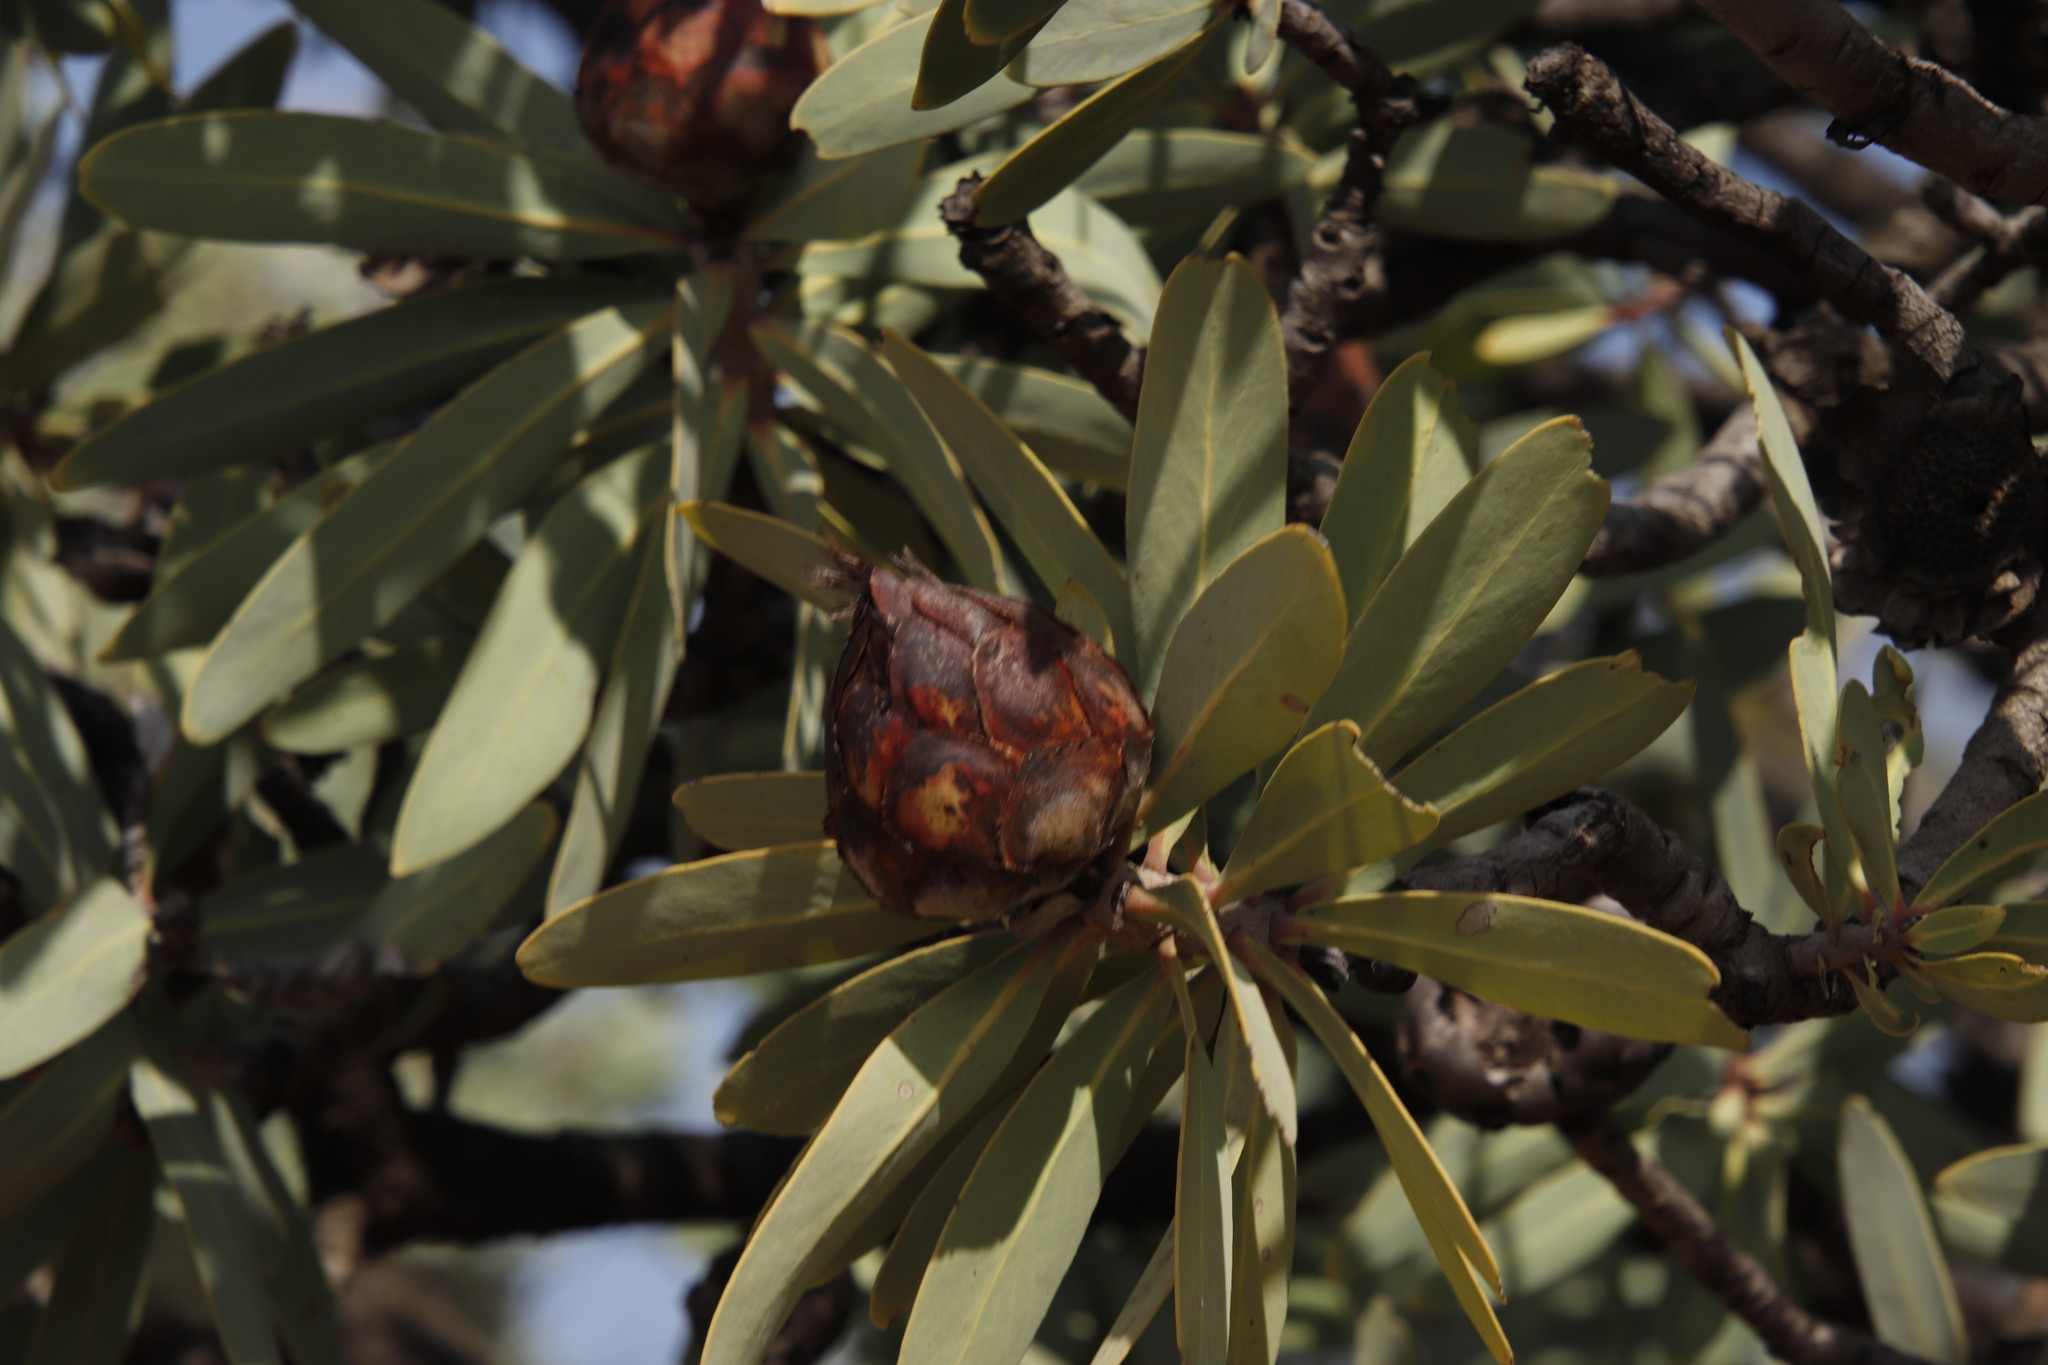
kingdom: Plantae
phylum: Tracheophyta
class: Magnoliopsida
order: Proteales
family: Proteaceae
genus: Protea
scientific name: Protea caffra
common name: Common sugarbush
